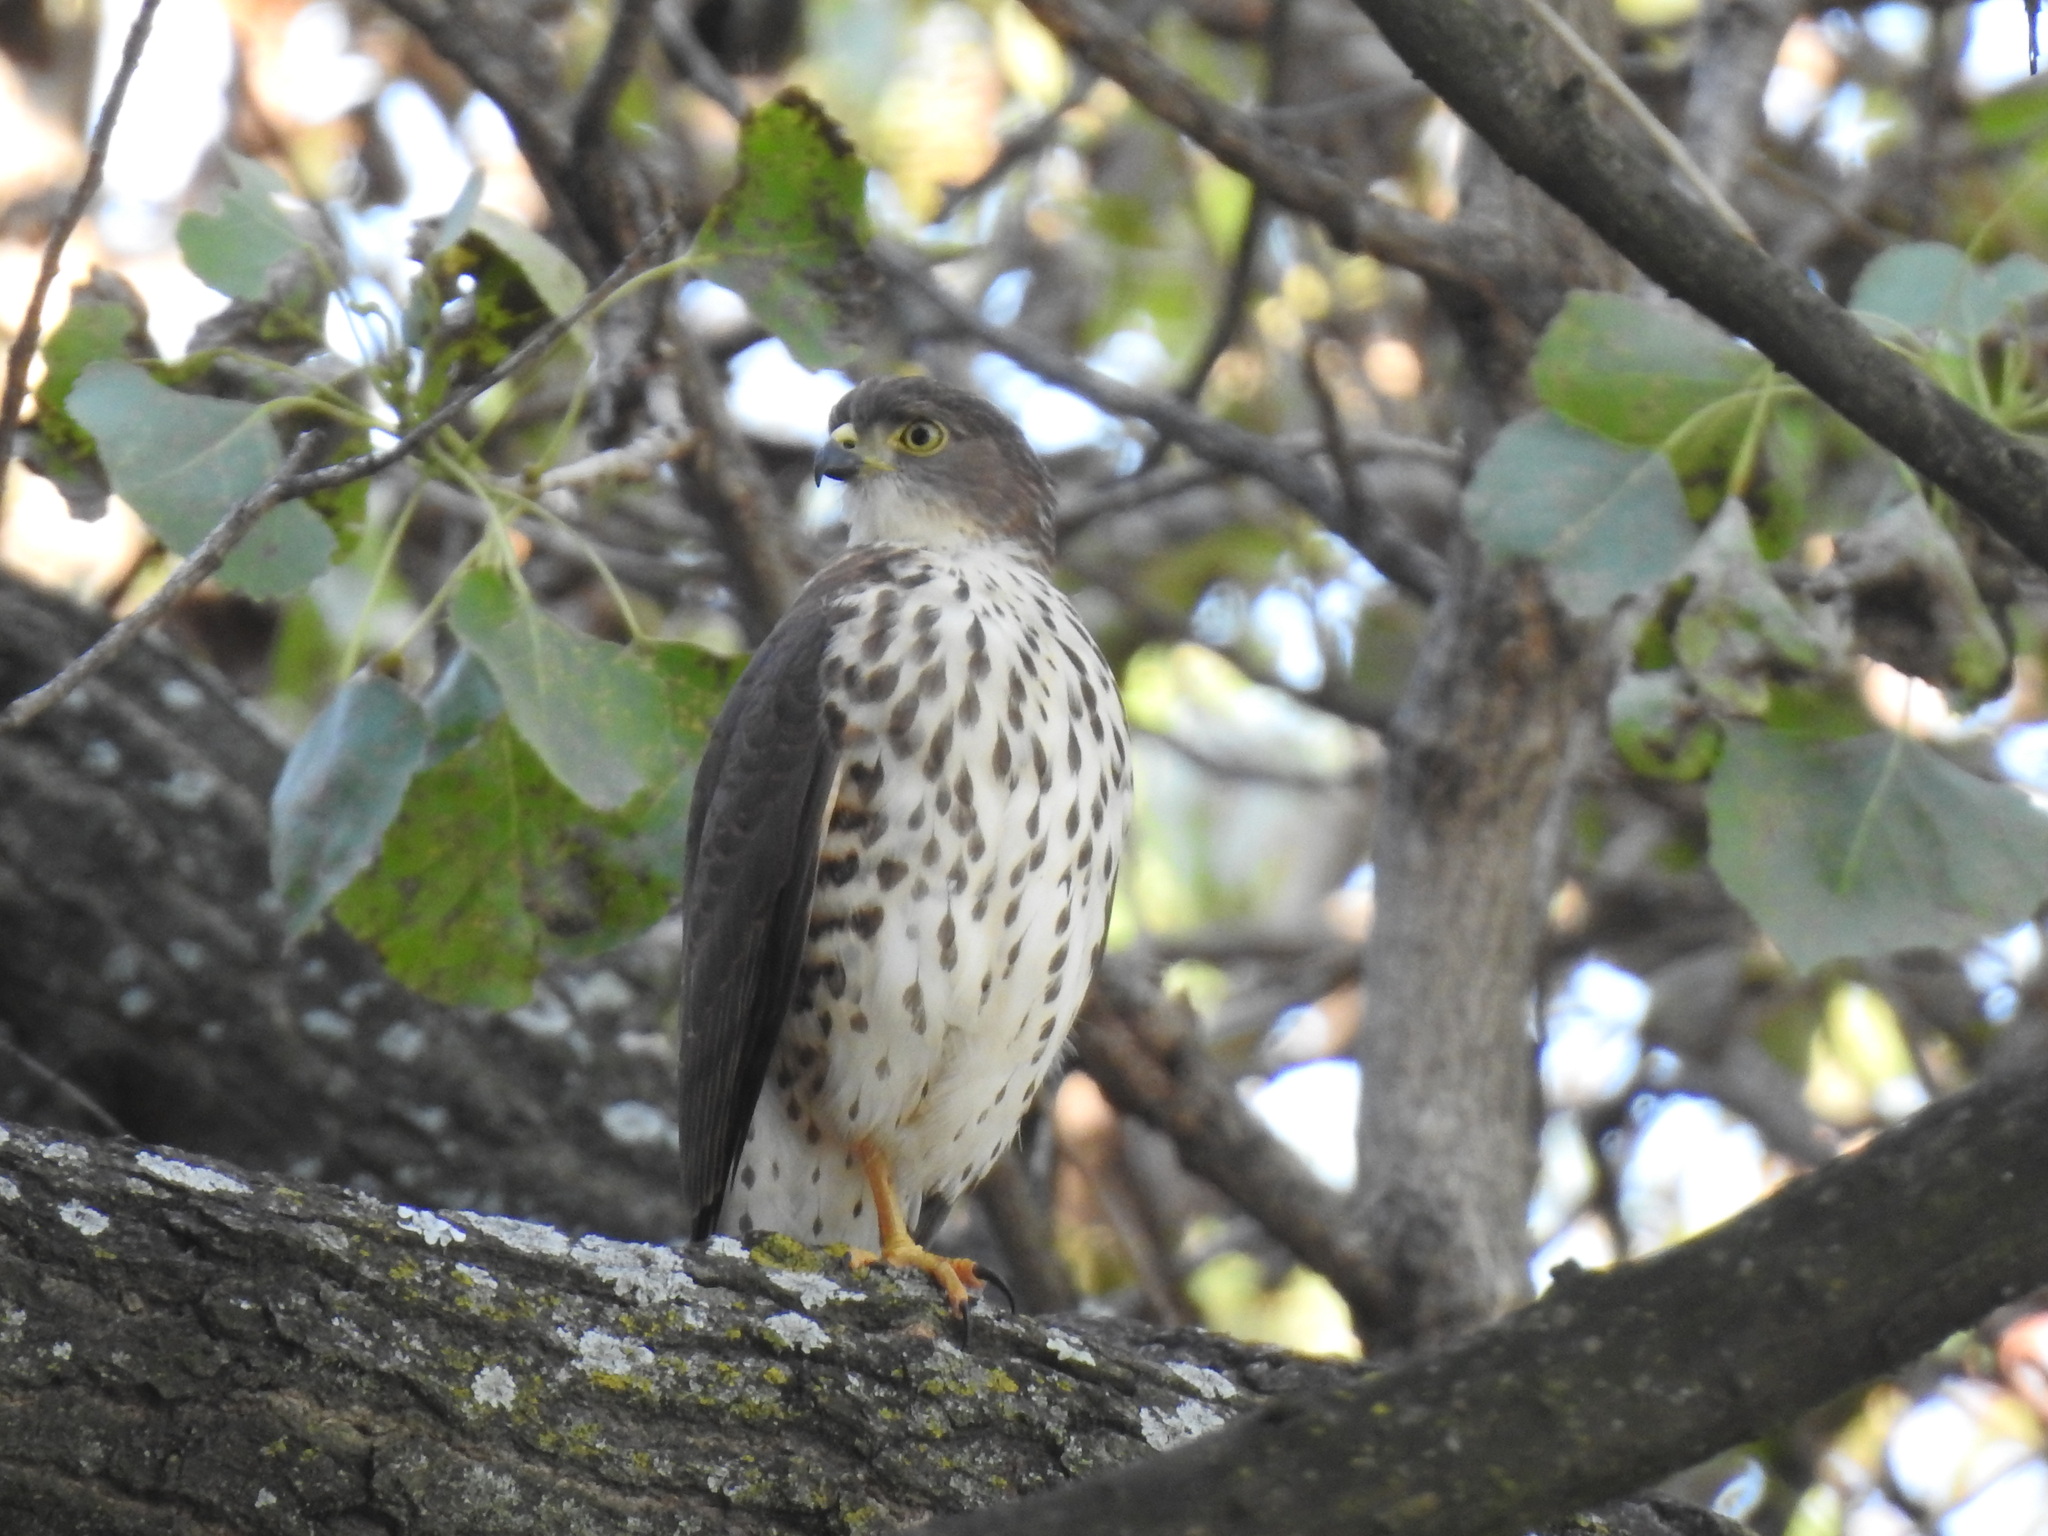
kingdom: Animalia
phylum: Chordata
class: Aves
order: Accipitriformes
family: Accipitridae
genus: Accipiter
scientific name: Accipiter minullus
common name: Little sparrowhawk
